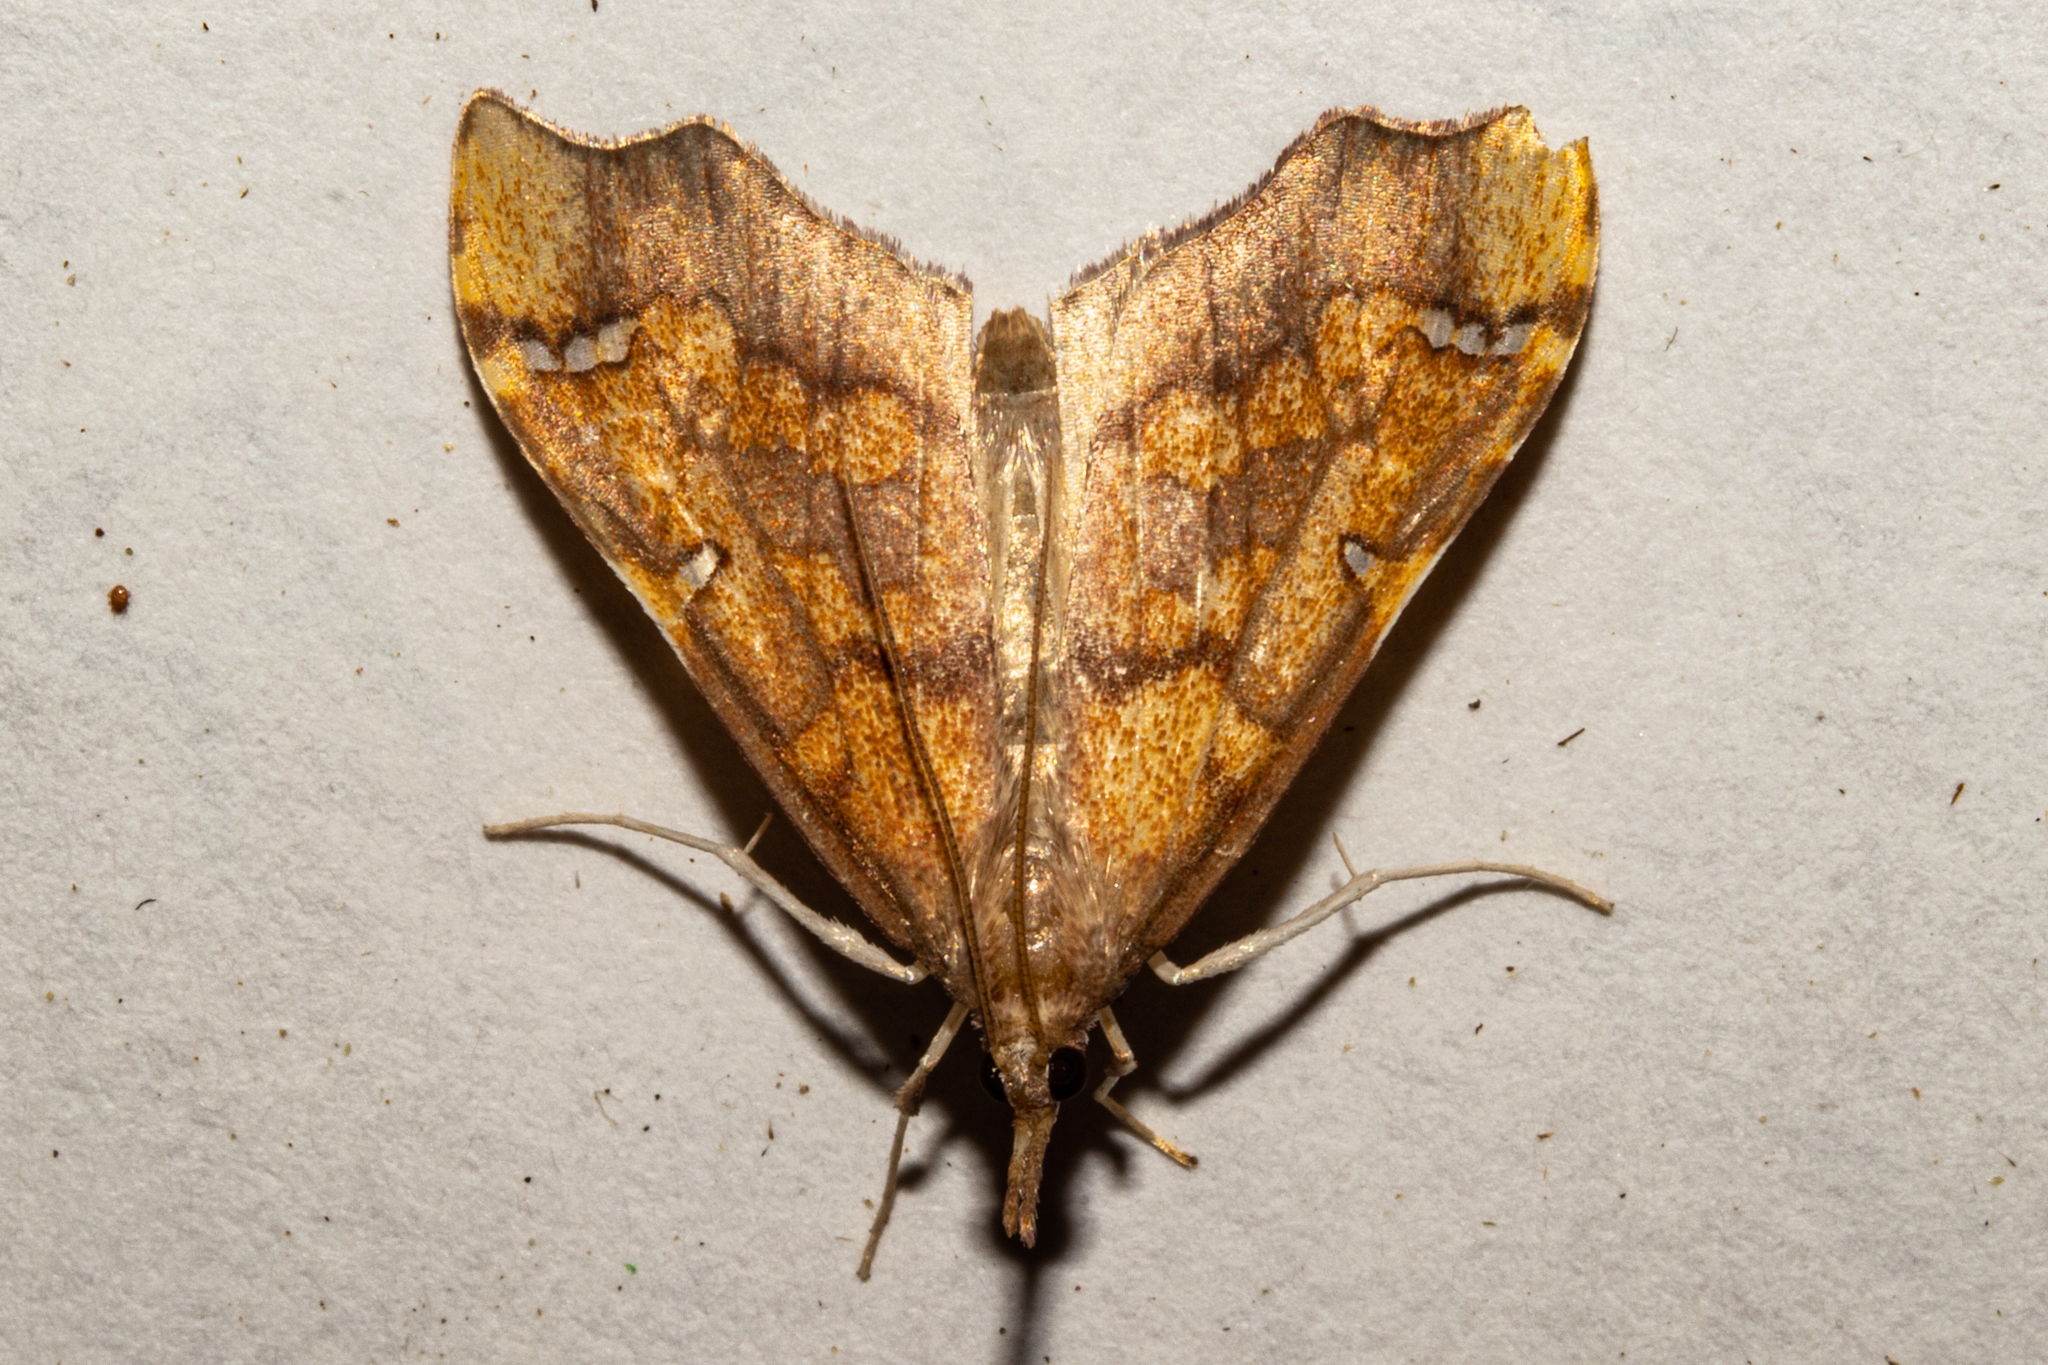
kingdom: Animalia
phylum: Arthropoda
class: Insecta
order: Lepidoptera
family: Crambidae
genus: Deana
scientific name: Deana hybreasalis
